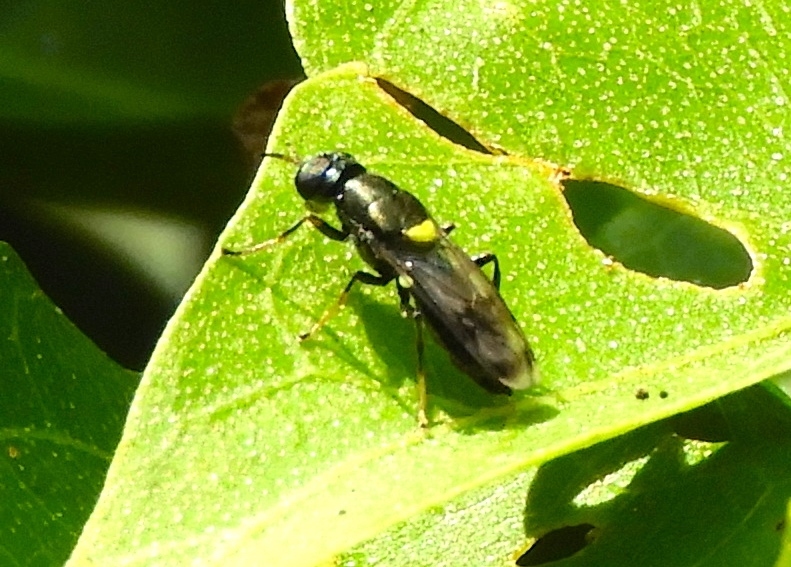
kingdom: Animalia
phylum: Arthropoda
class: Insecta
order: Diptera
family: Stratiomyidae
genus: Myxosargus
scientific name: Myxosargus
